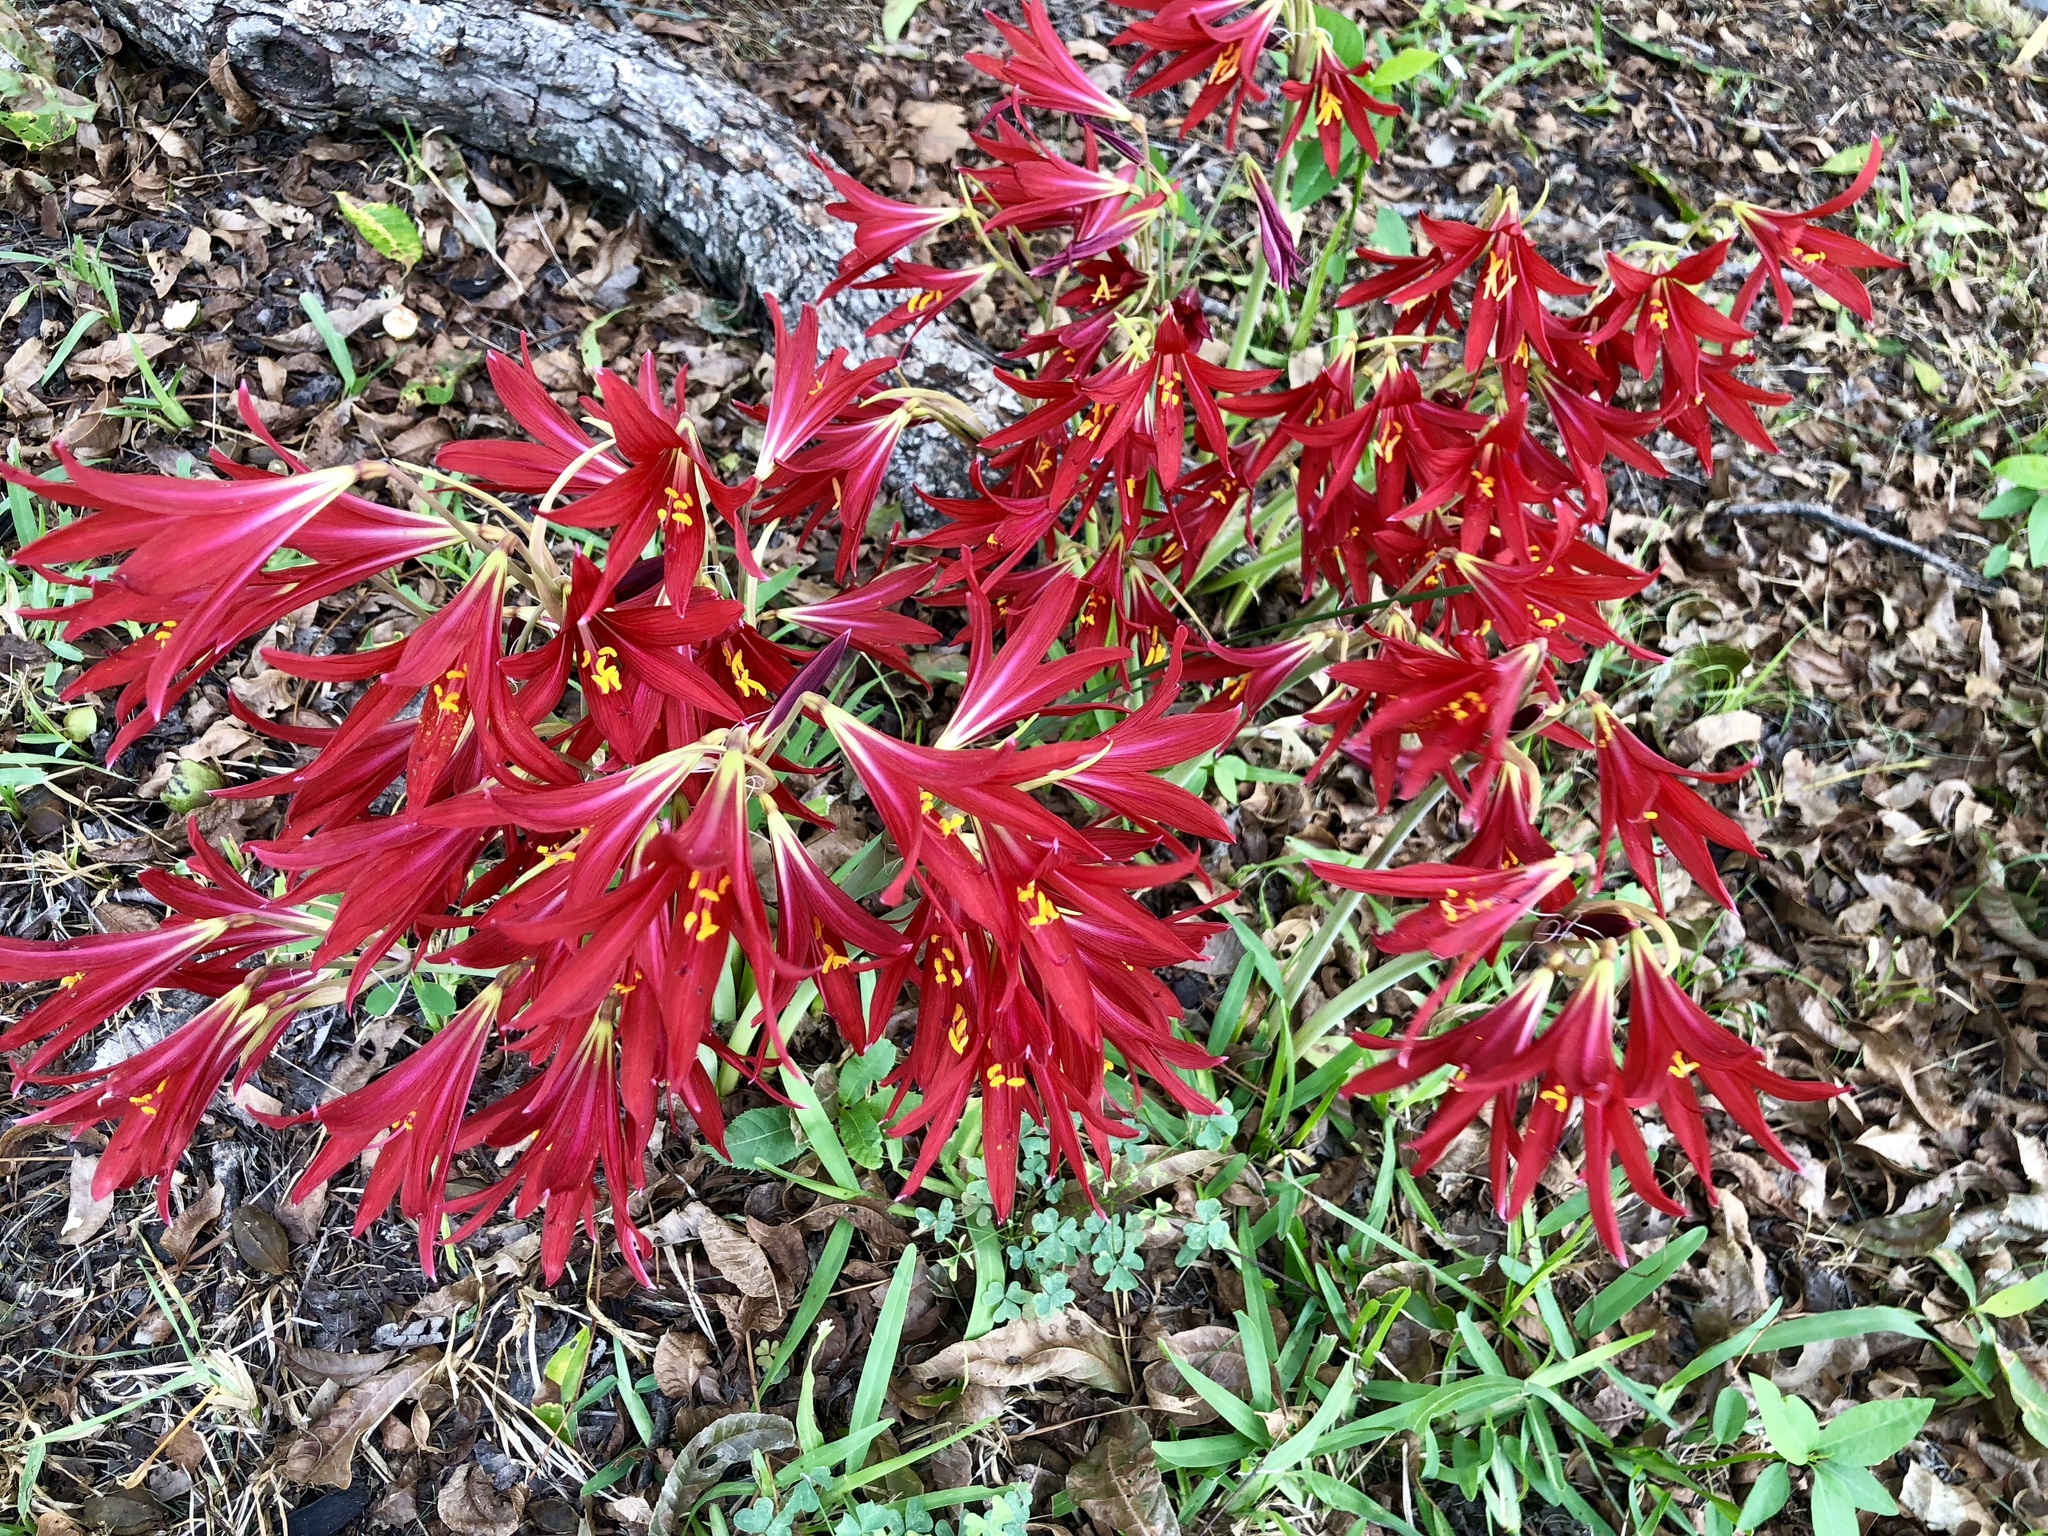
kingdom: Plantae
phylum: Tracheophyta
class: Liliopsida
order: Asparagales
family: Amaryllidaceae
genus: Zephyranthes
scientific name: Zephyranthes bifida
